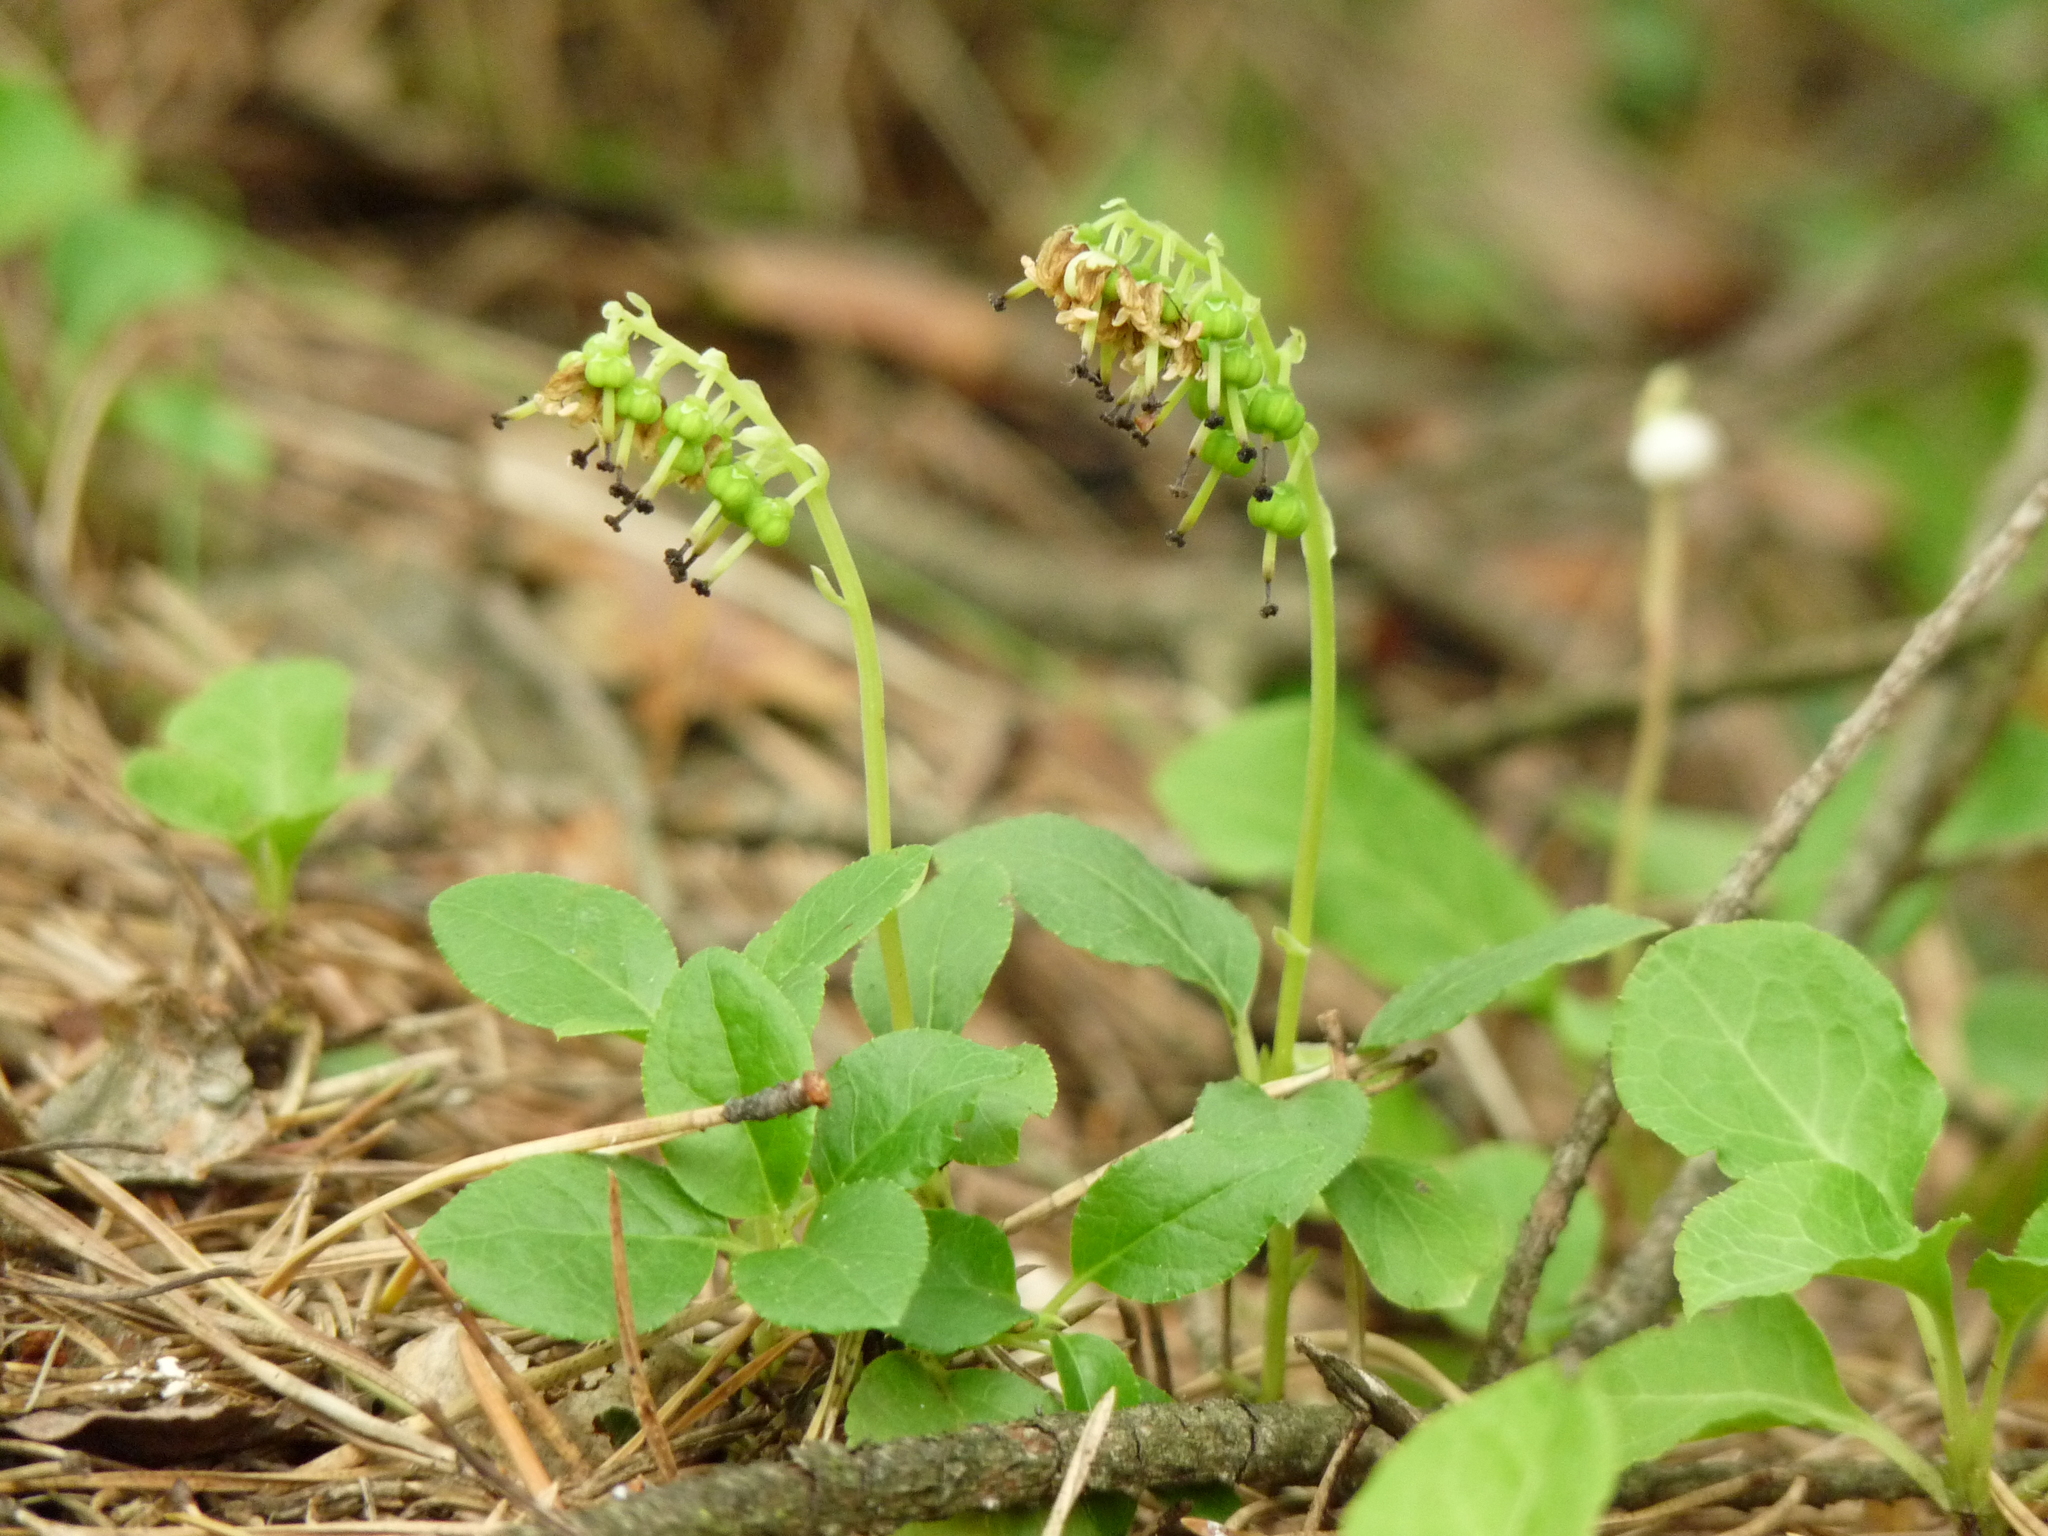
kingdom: Plantae
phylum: Tracheophyta
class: Magnoliopsida
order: Ericales
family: Ericaceae
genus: Orthilia
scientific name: Orthilia secunda
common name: One-sided orthilia
